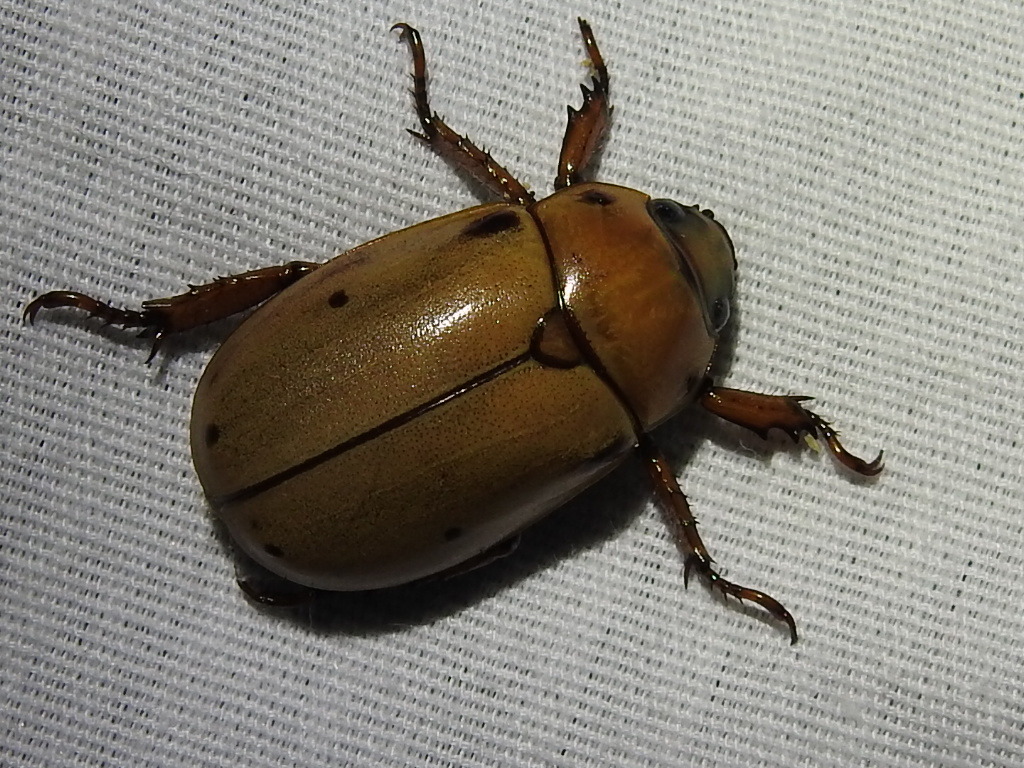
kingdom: Animalia
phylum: Arthropoda
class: Insecta
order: Coleoptera
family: Scarabaeidae
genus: Pelidnota
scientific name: Pelidnota punctata
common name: Grapevine beetle
